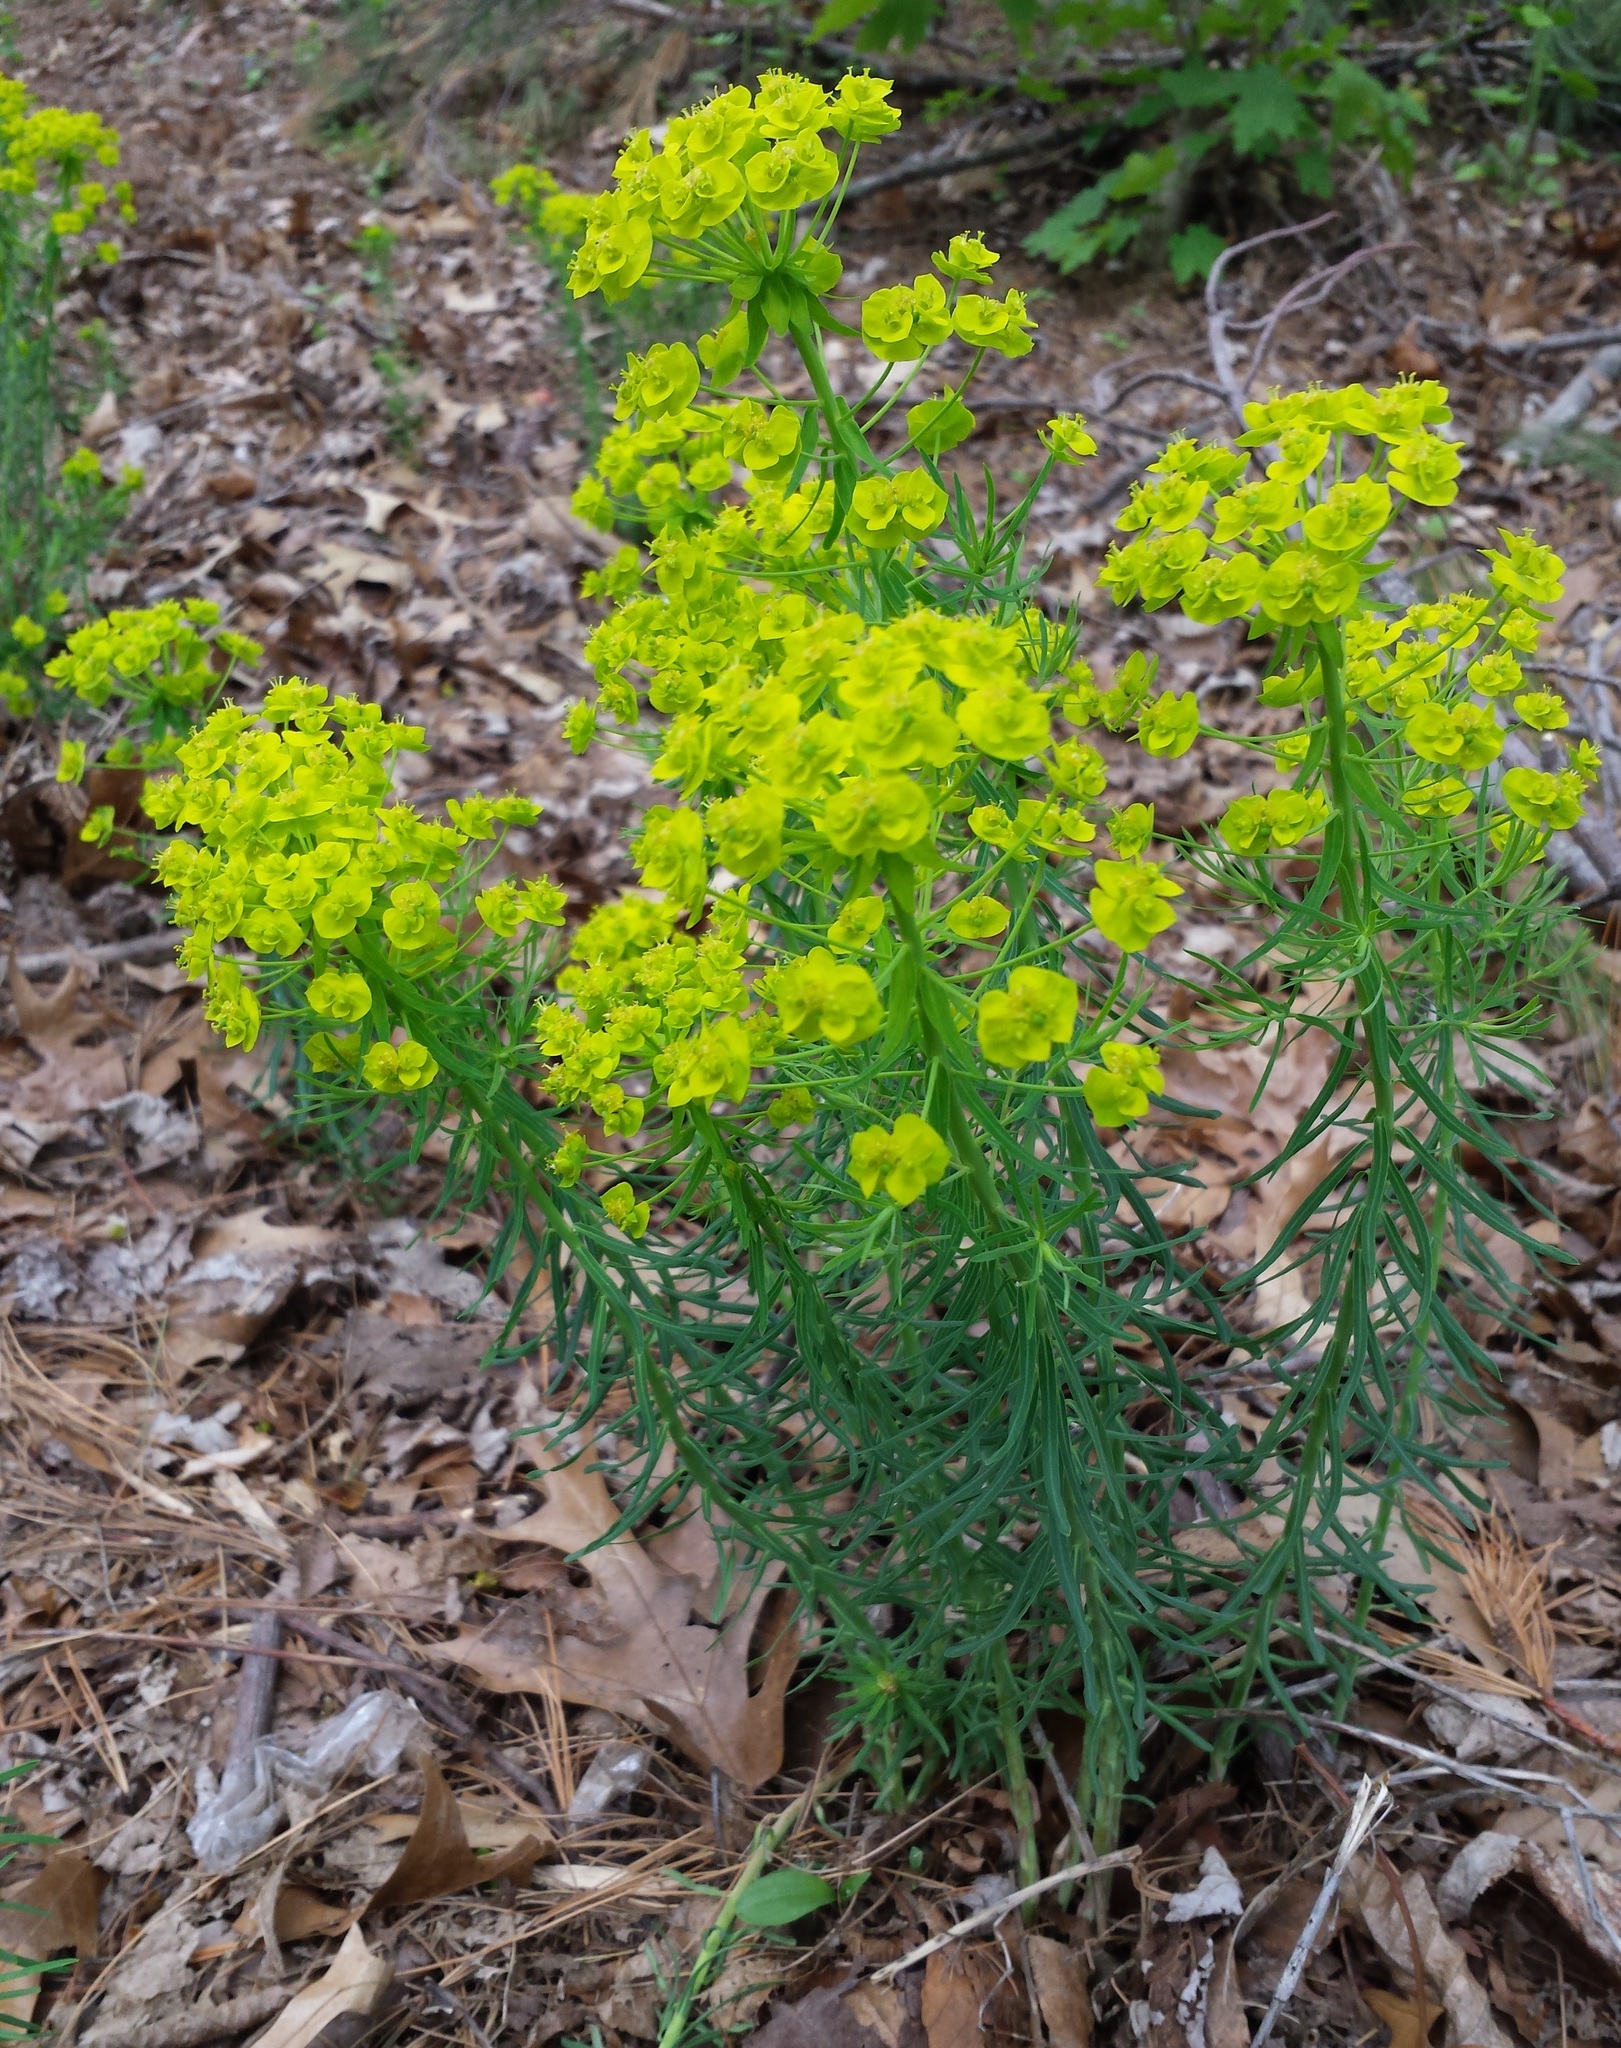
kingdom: Plantae
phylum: Tracheophyta
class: Magnoliopsida
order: Malpighiales
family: Euphorbiaceae
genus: Euphorbia
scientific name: Euphorbia cyparissias
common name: Cypress spurge
